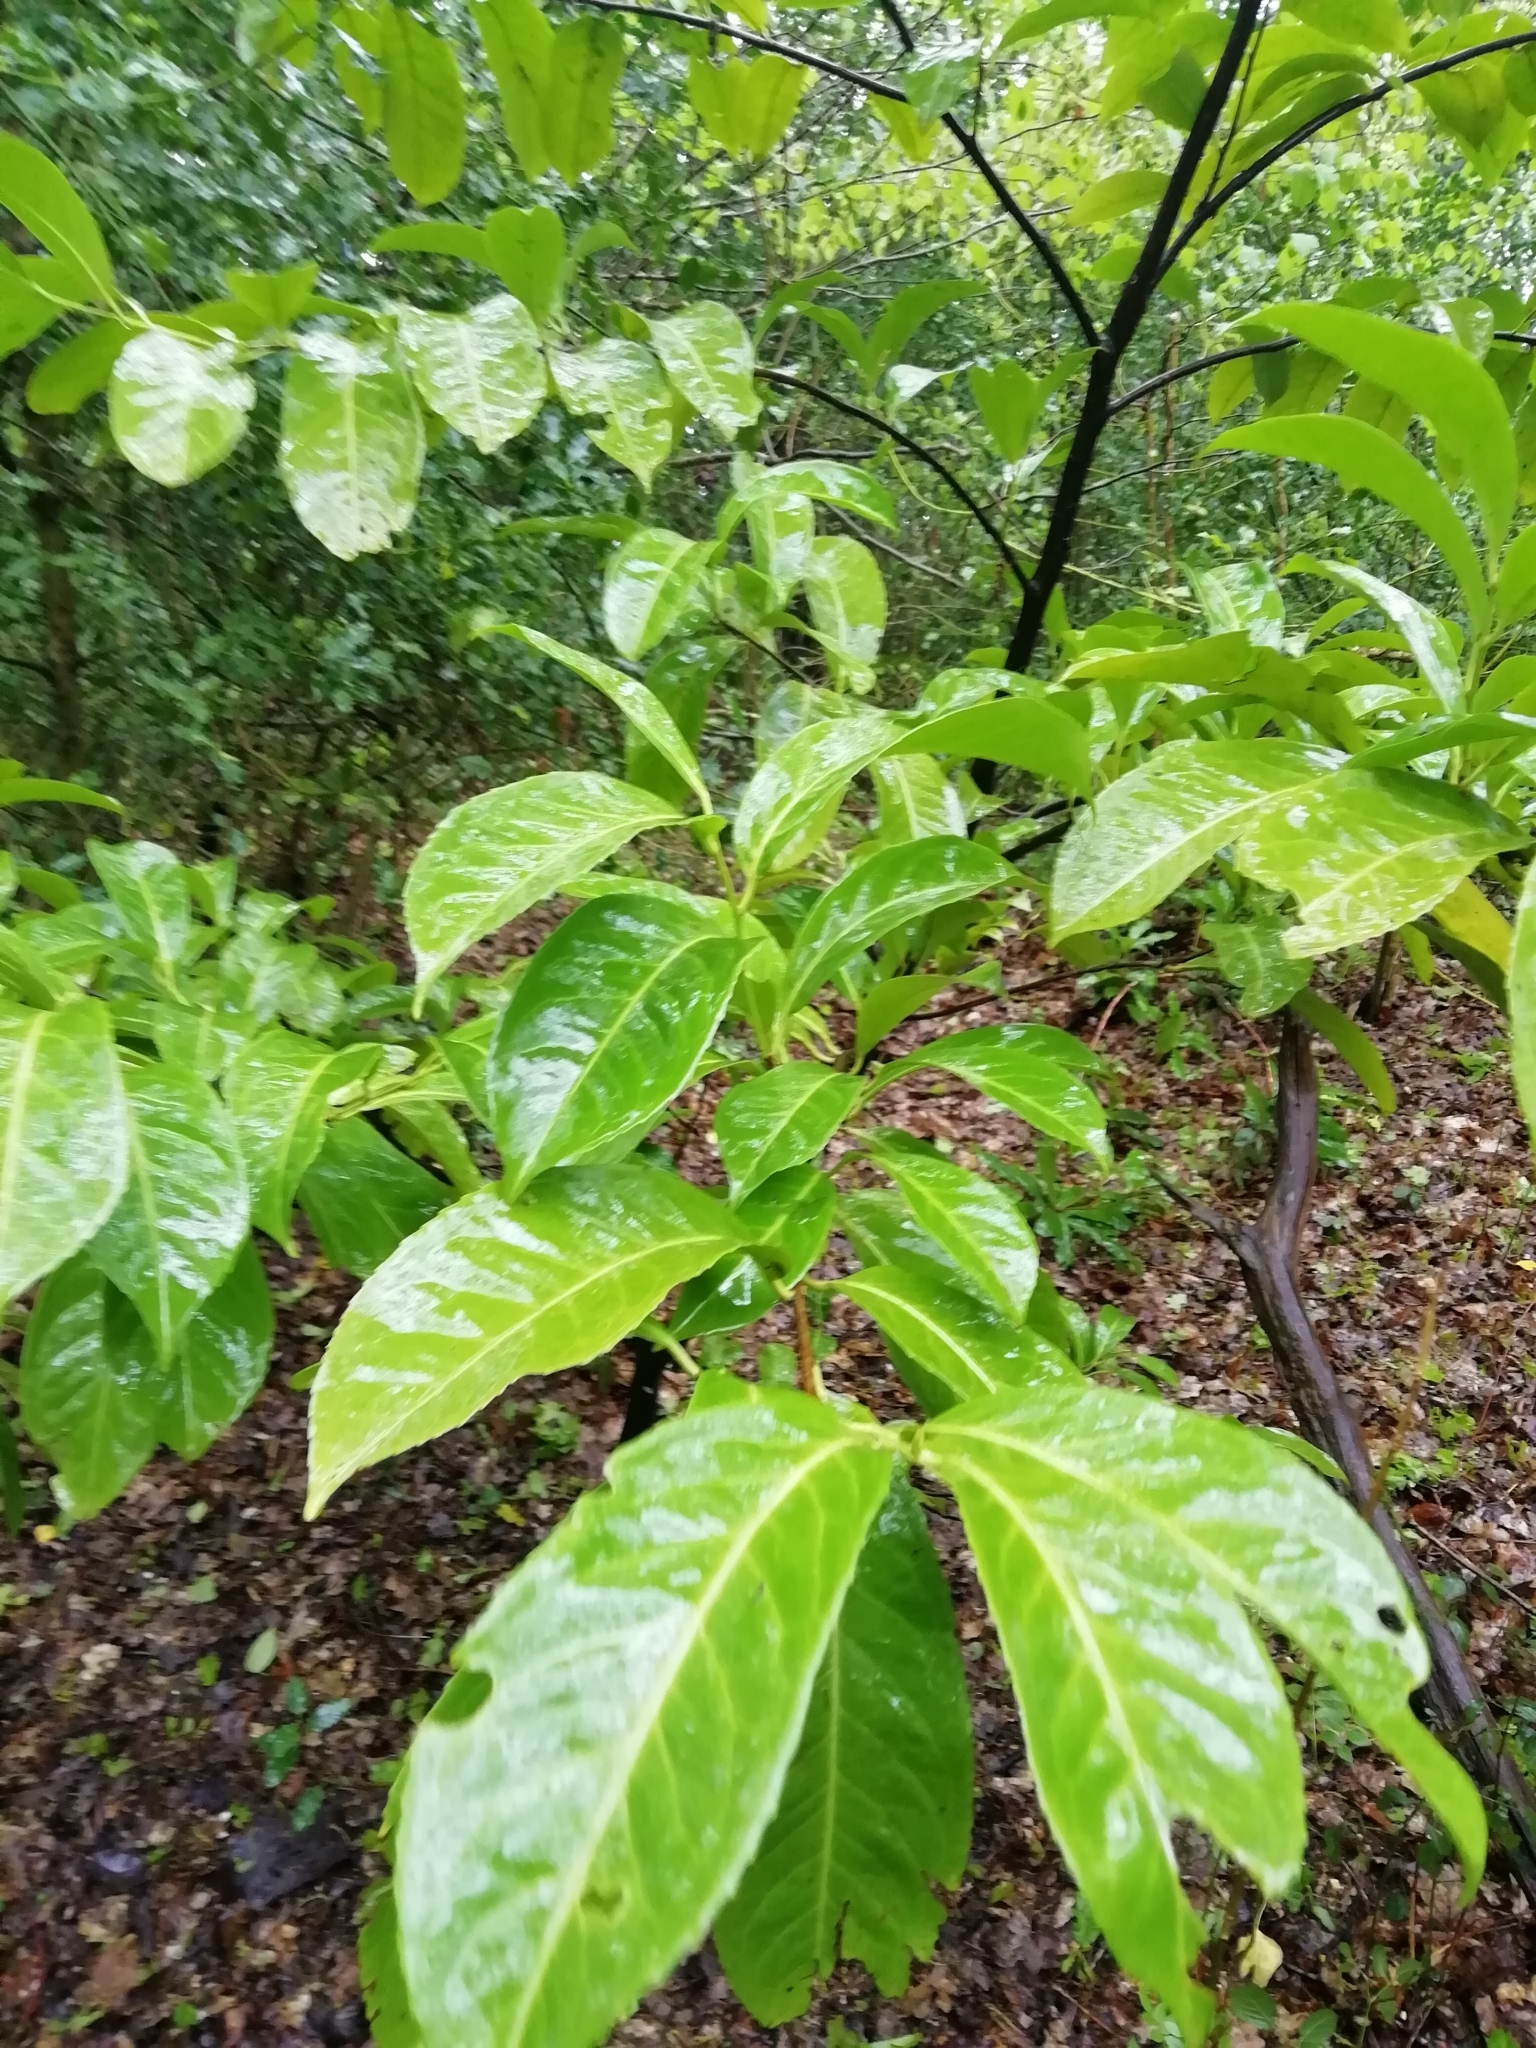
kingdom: Plantae
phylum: Tracheophyta
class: Magnoliopsida
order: Rosales
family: Rosaceae
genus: Prunus
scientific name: Prunus laurocerasus
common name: Cherry laurel
